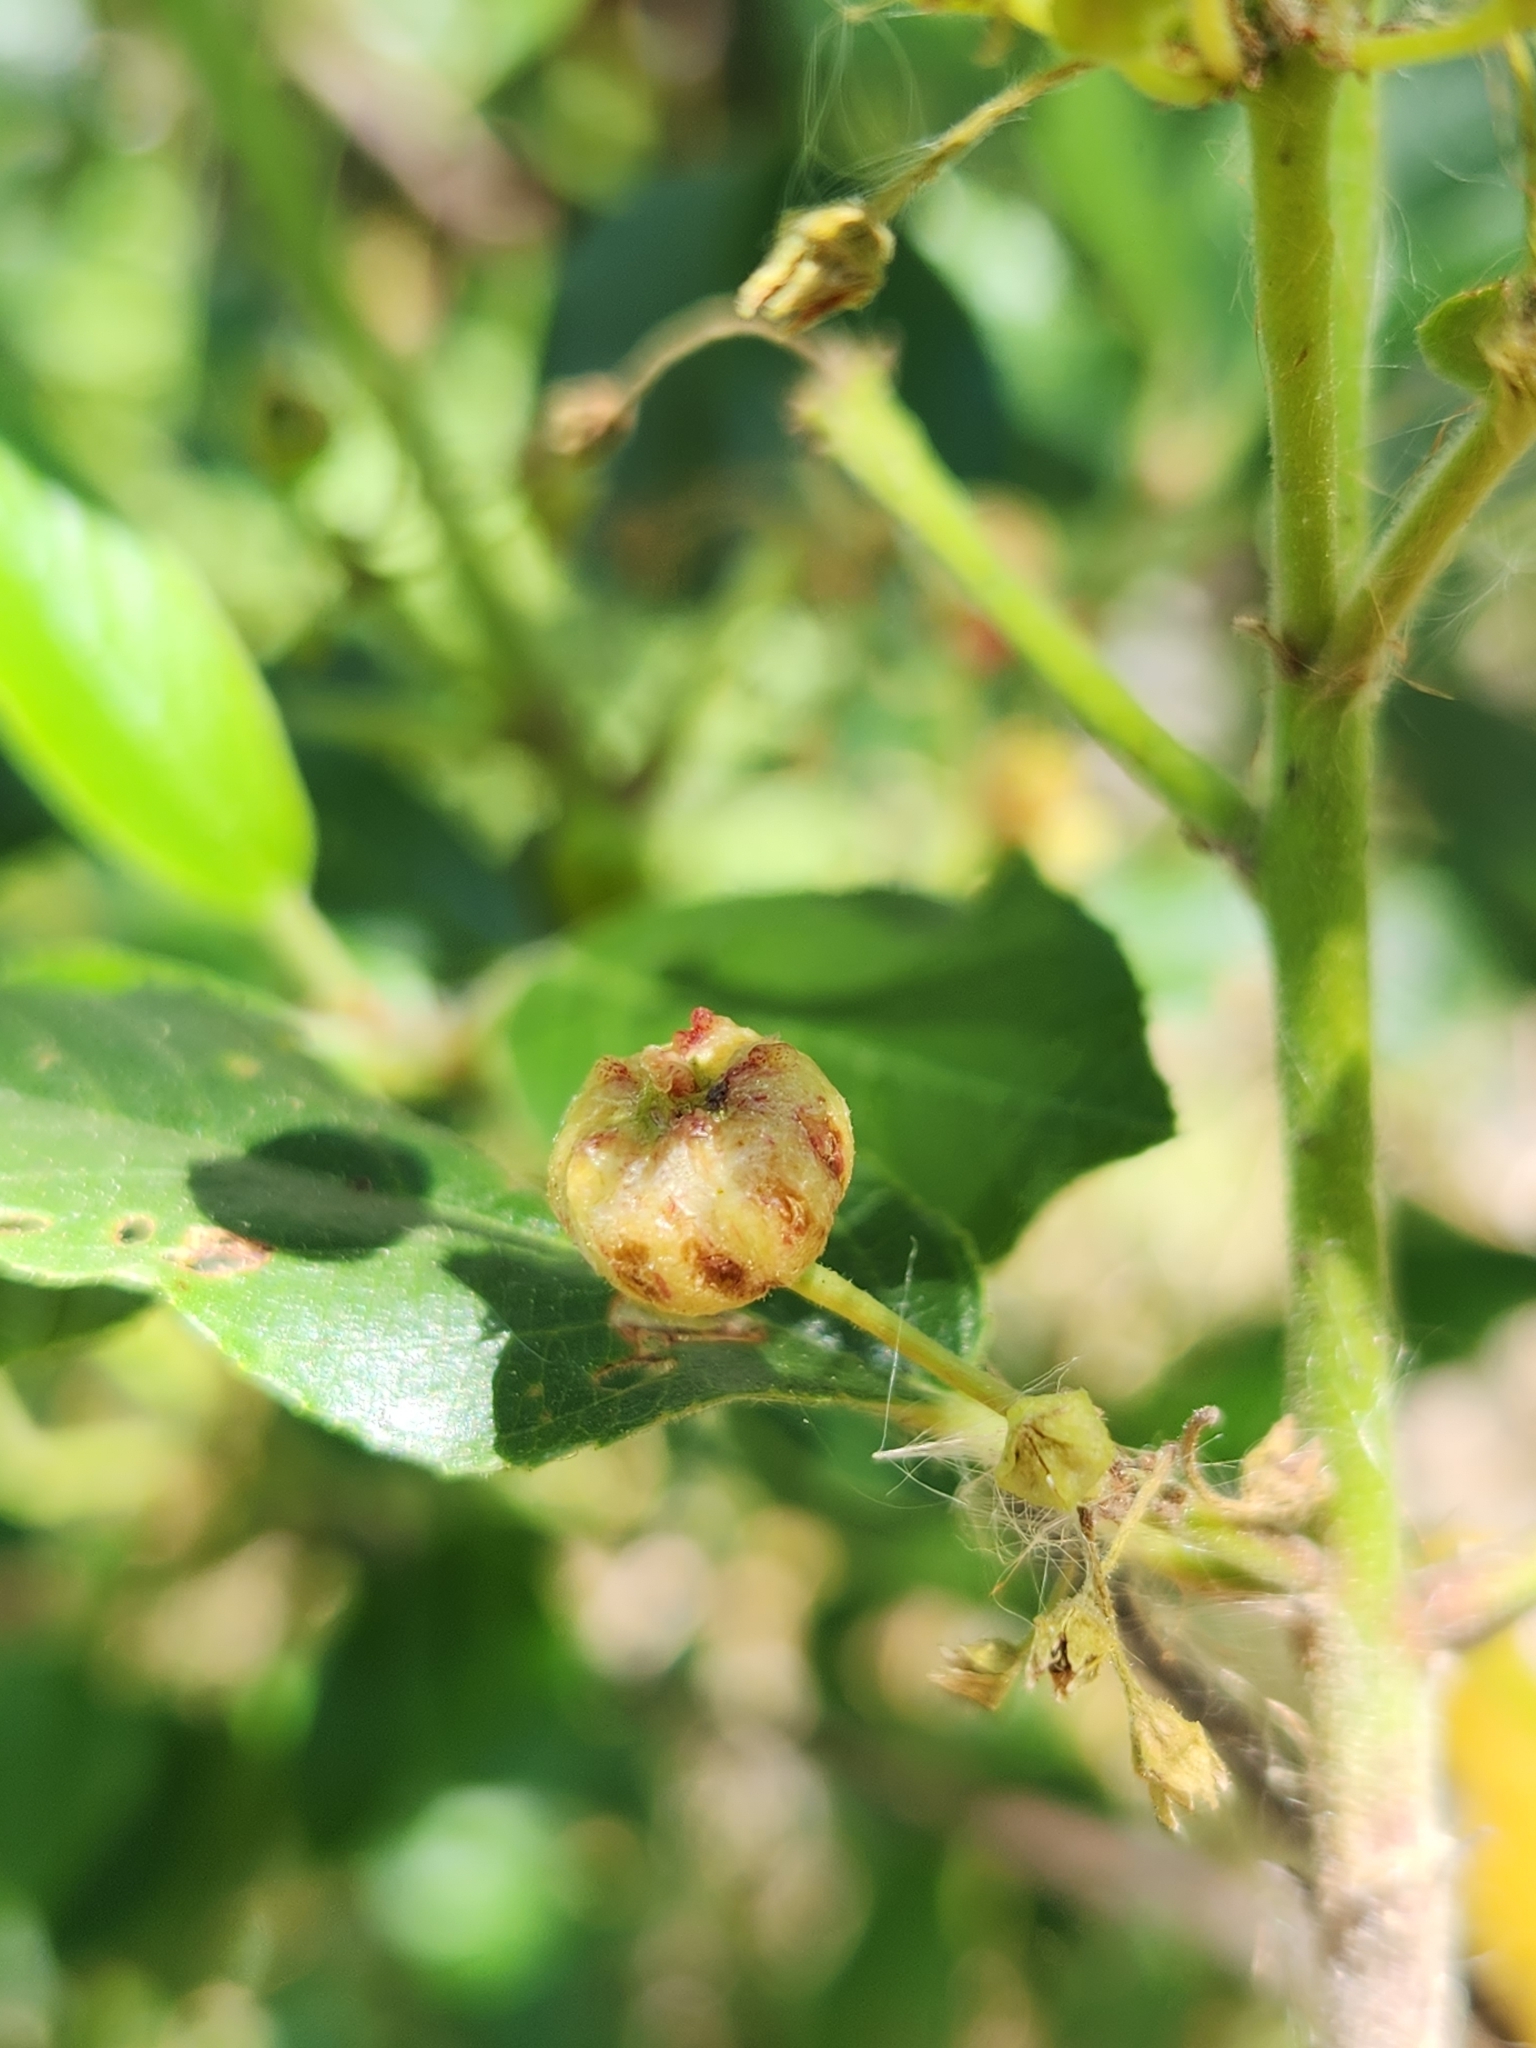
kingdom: Plantae
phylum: Tracheophyta
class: Magnoliopsida
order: Rosales
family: Rhamnaceae
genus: Frangula
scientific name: Frangula californica
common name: California buckthorn
